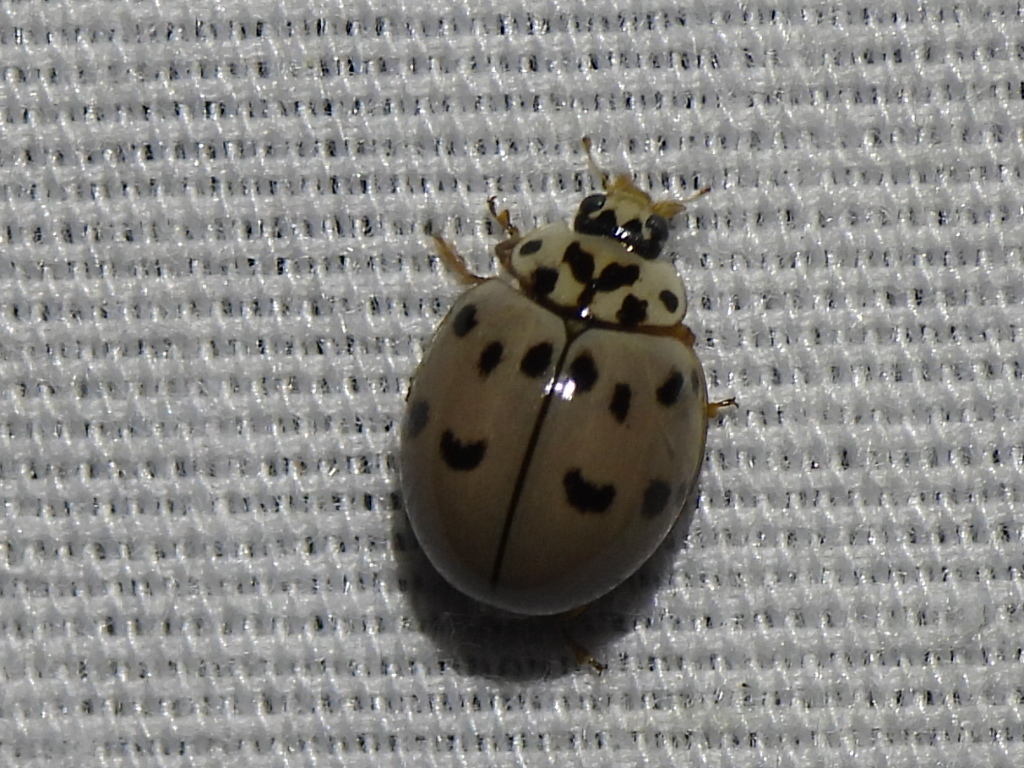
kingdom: Animalia
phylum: Arthropoda
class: Insecta
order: Coleoptera
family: Coccinellidae
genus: Olla
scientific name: Olla v-nigrum
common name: Ashy gray lady beetle
